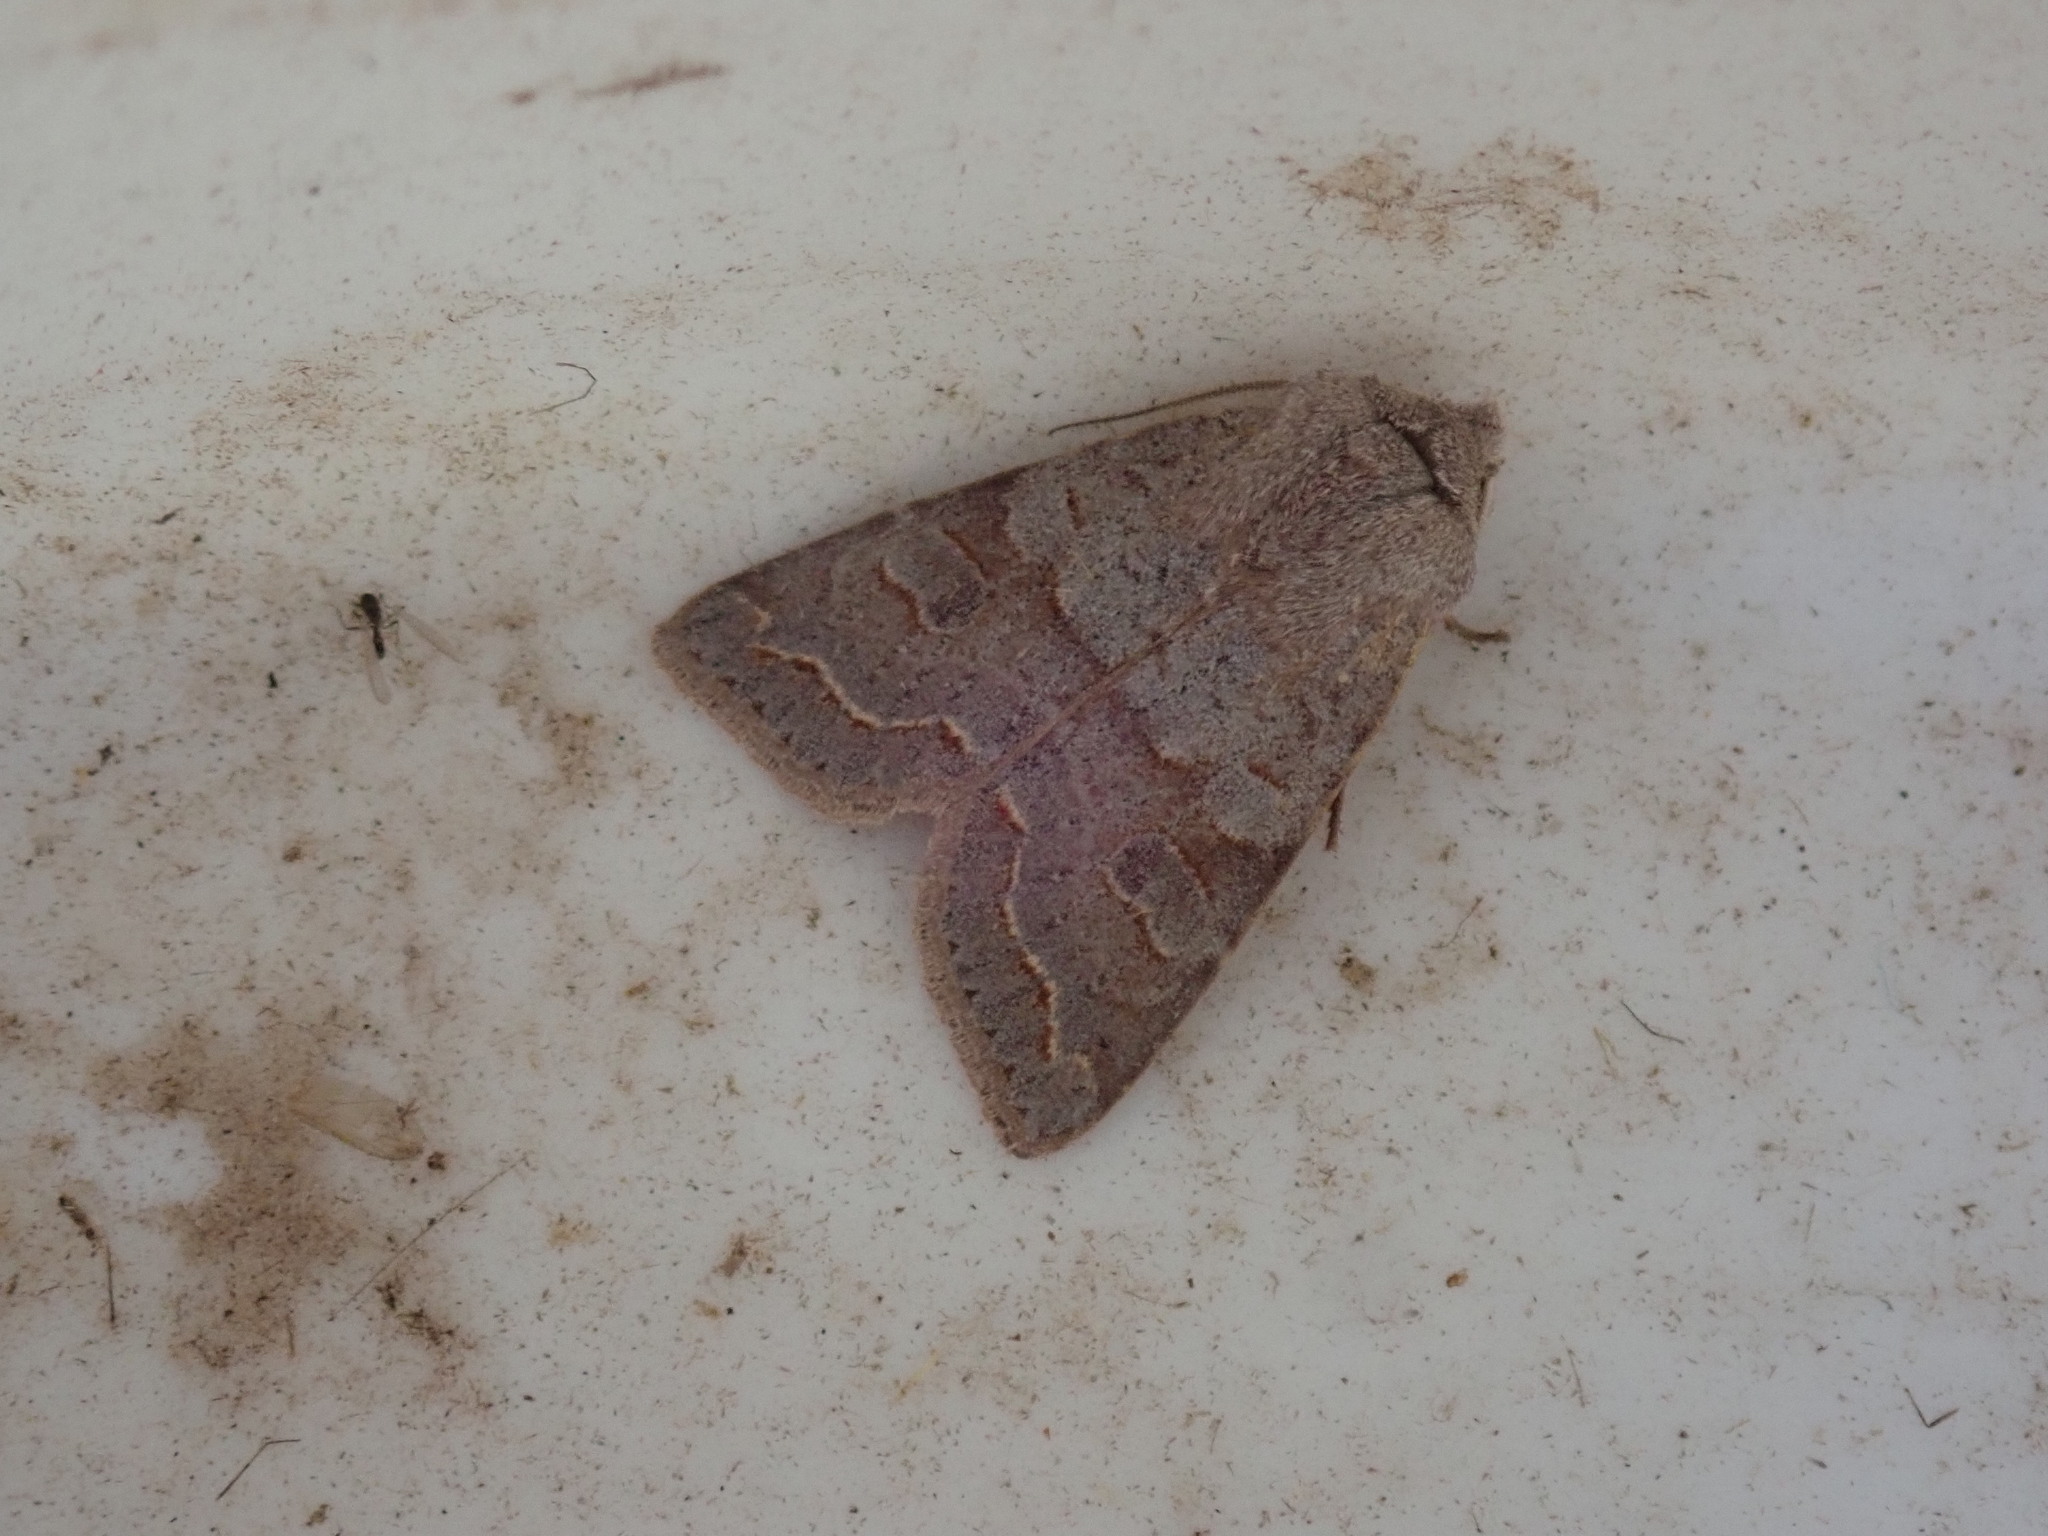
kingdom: Animalia
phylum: Arthropoda
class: Insecta
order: Lepidoptera
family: Noctuidae
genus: Orthosia
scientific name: Orthosia revicta
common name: Rusty whitesided caterpillar
